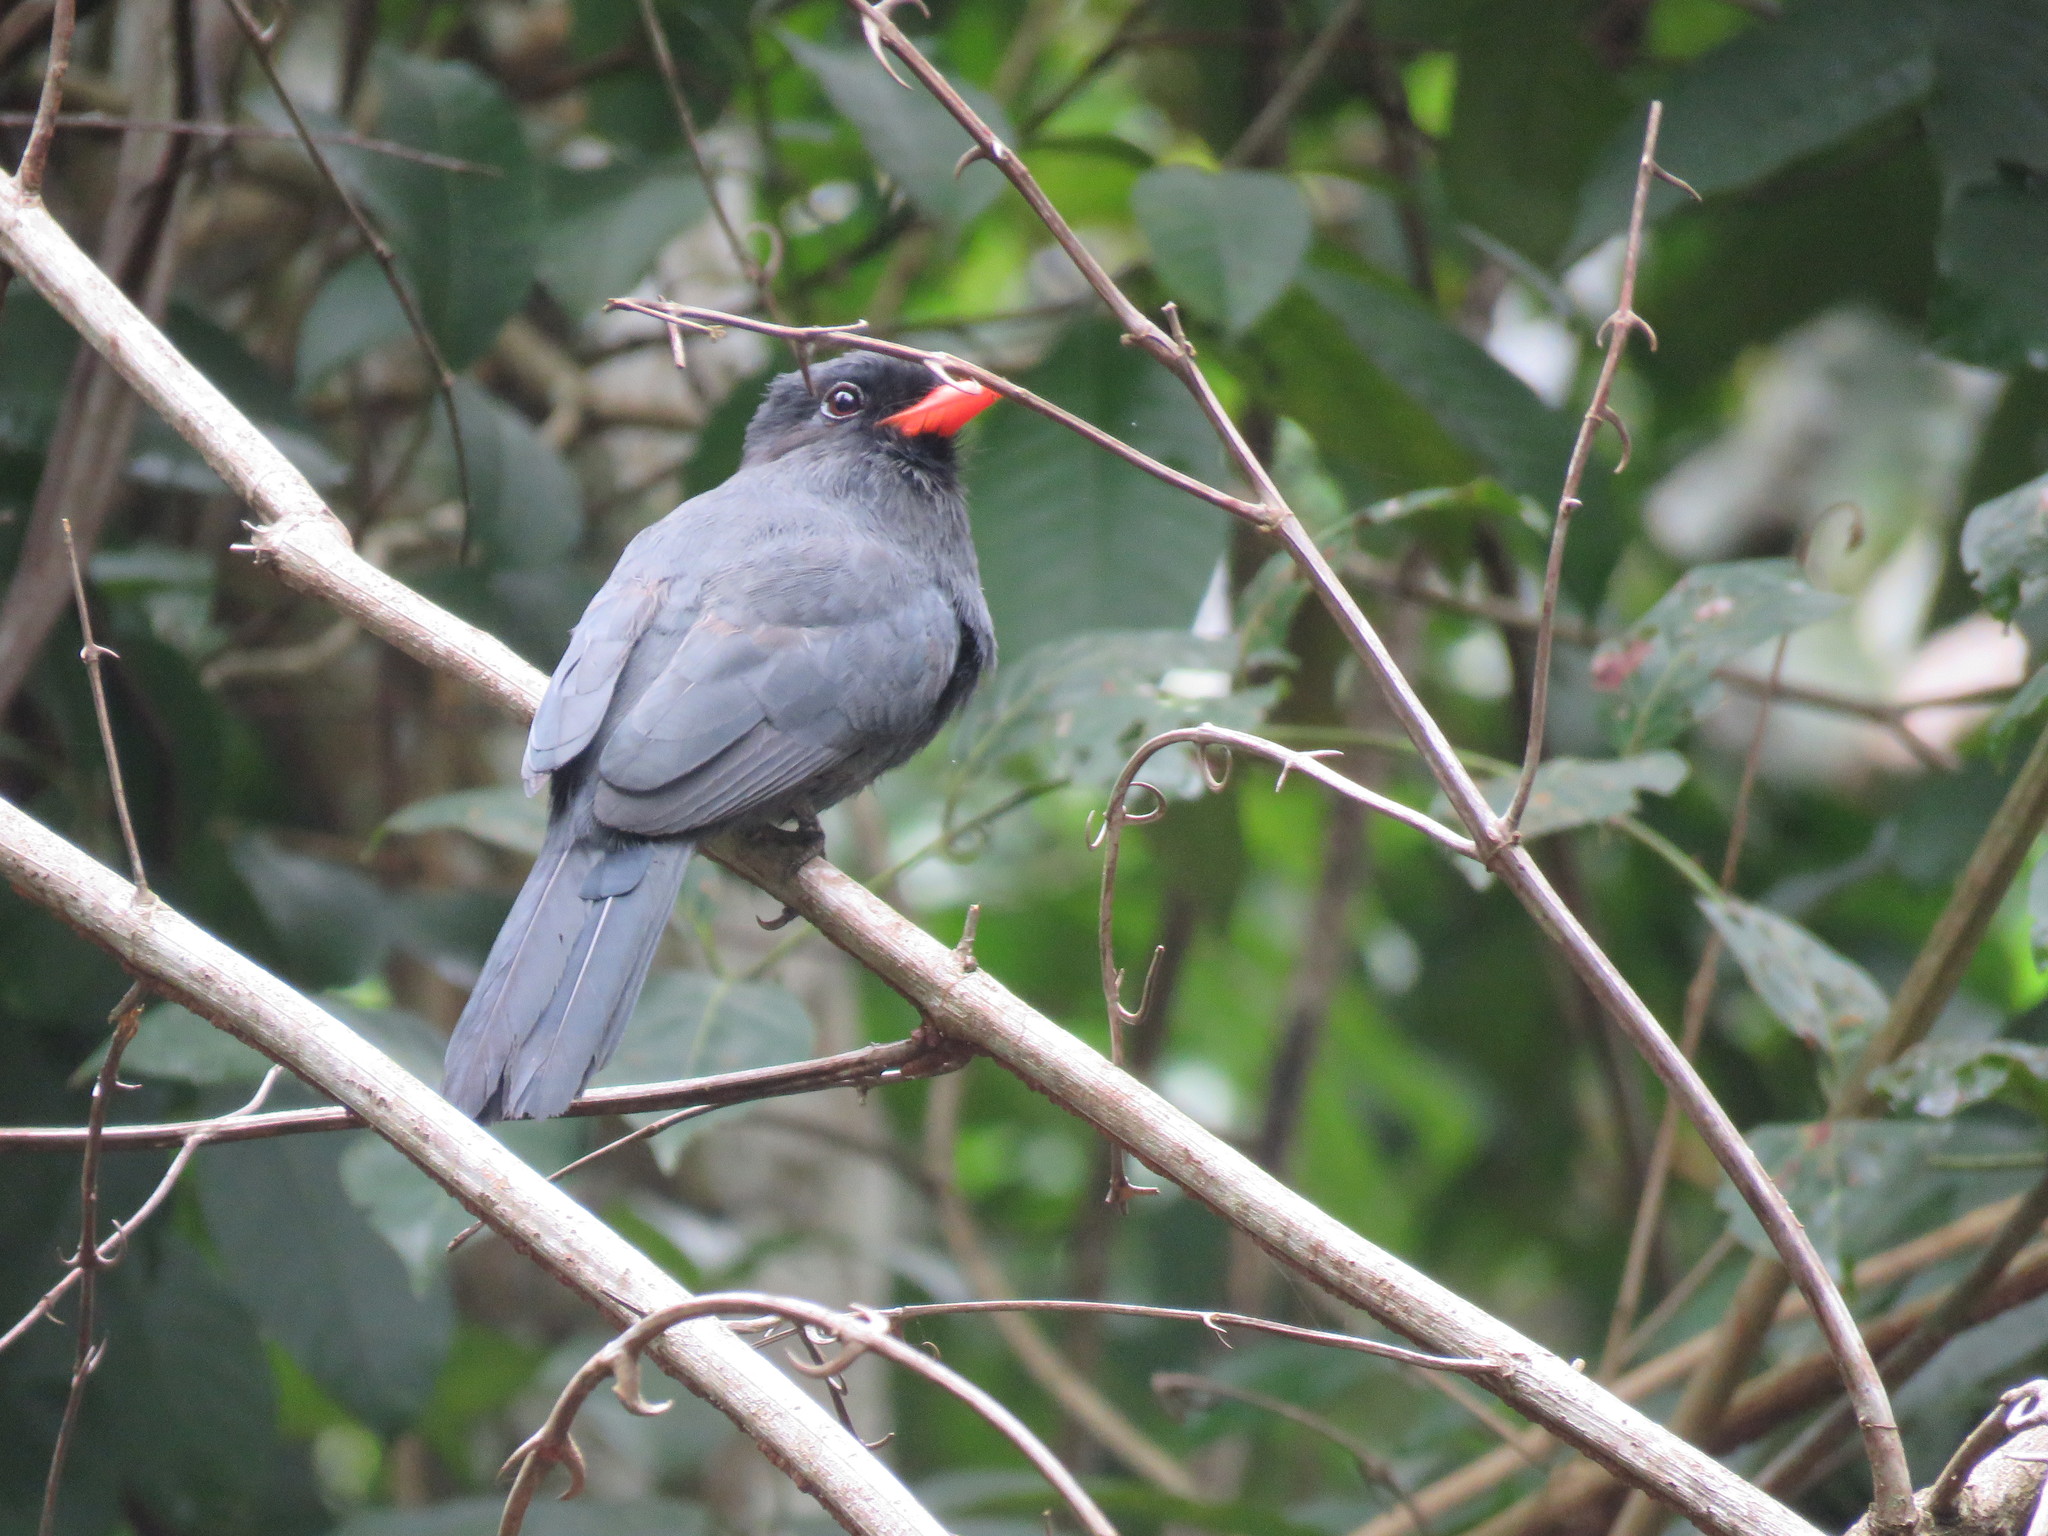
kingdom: Animalia
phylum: Chordata
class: Aves
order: Piciformes
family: Bucconidae
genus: Monasa
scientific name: Monasa nigrifrons
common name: Black-fronted nunbird
